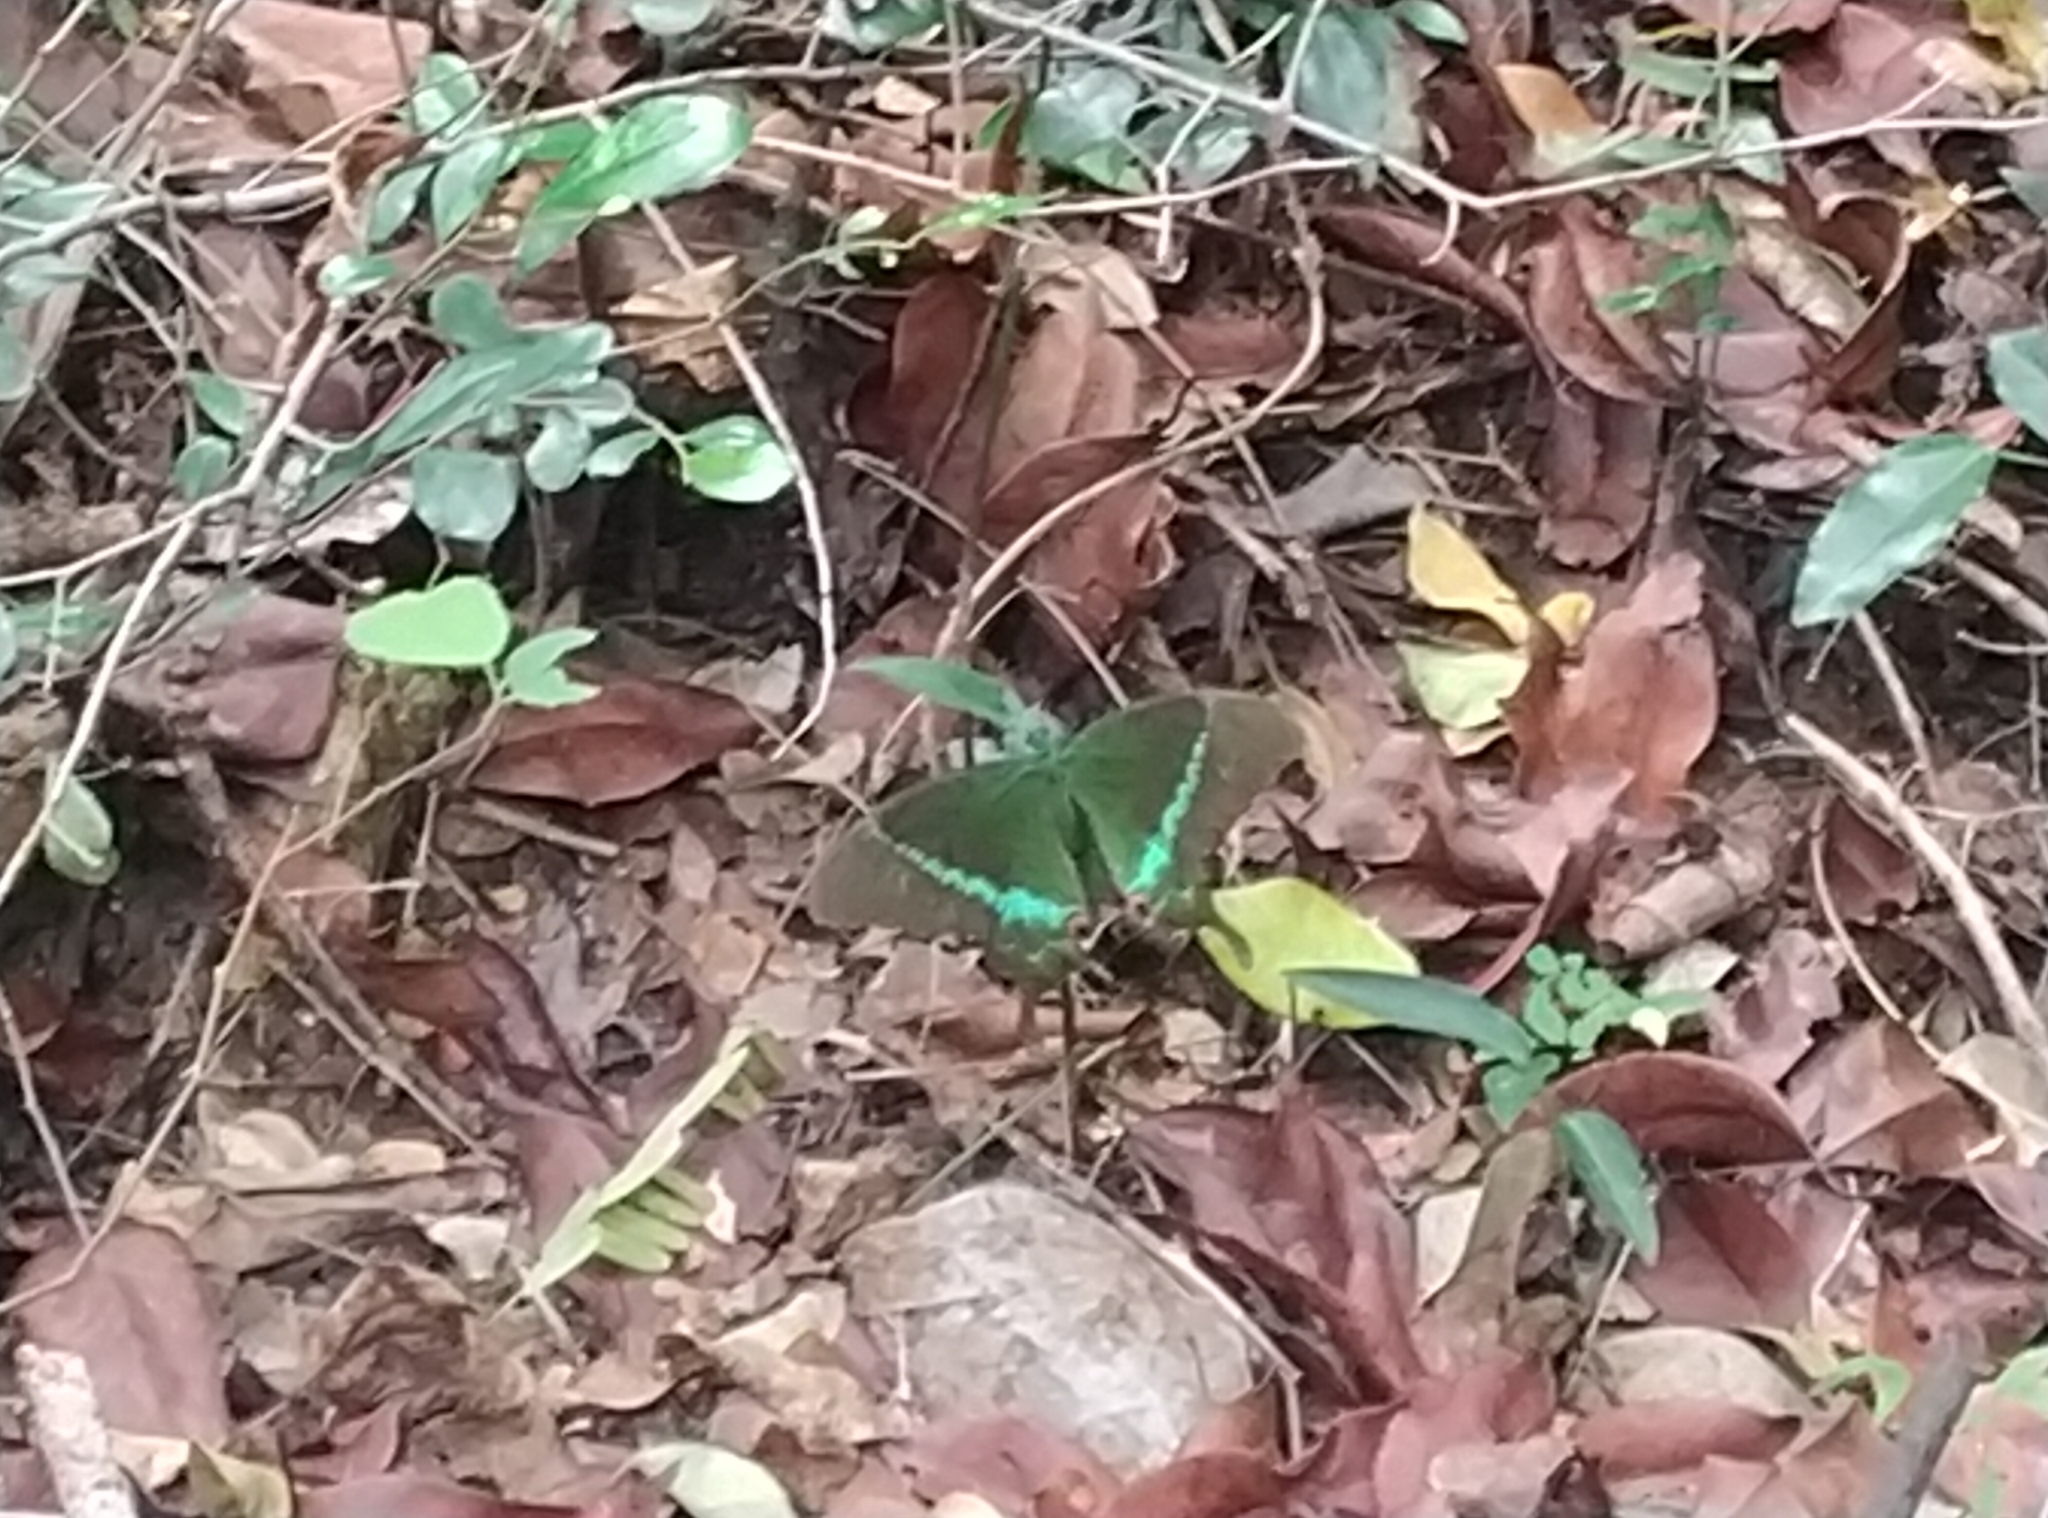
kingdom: Animalia
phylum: Arthropoda
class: Insecta
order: Lepidoptera
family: Papilionidae
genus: Papilio
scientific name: Papilio crino
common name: Common banded peacock
